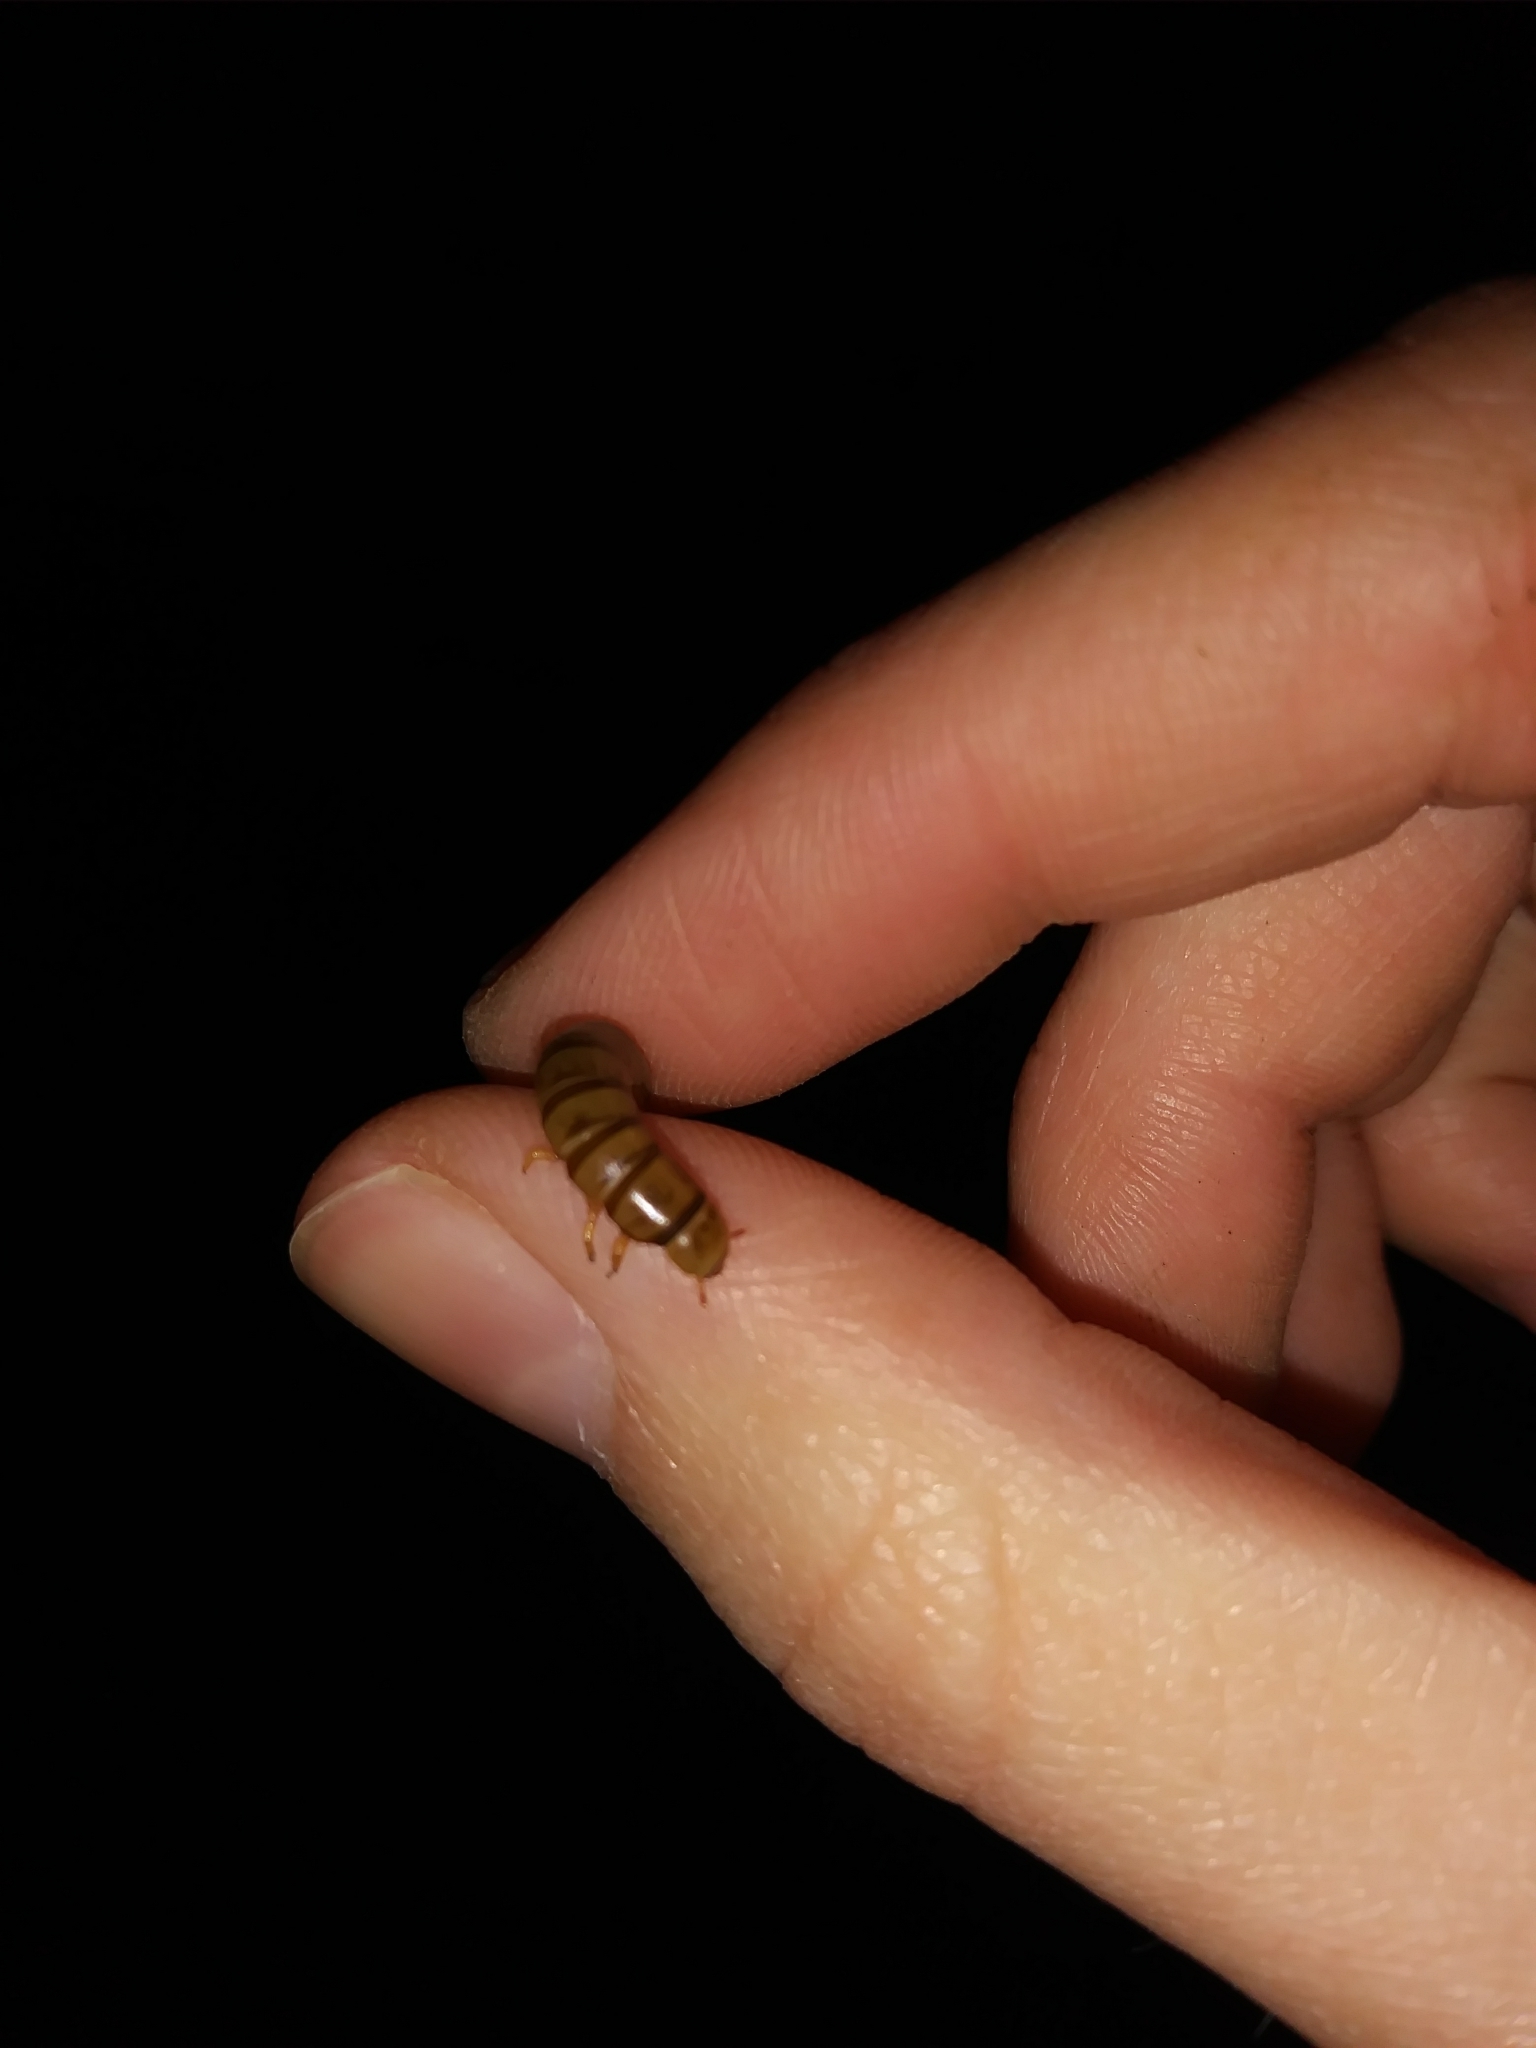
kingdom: Animalia
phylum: Arthropoda
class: Insecta
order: Coleoptera
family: Tenebrionidae
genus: Tenebrio
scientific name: Tenebrio obscurus
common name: Dark mealworm beetle
